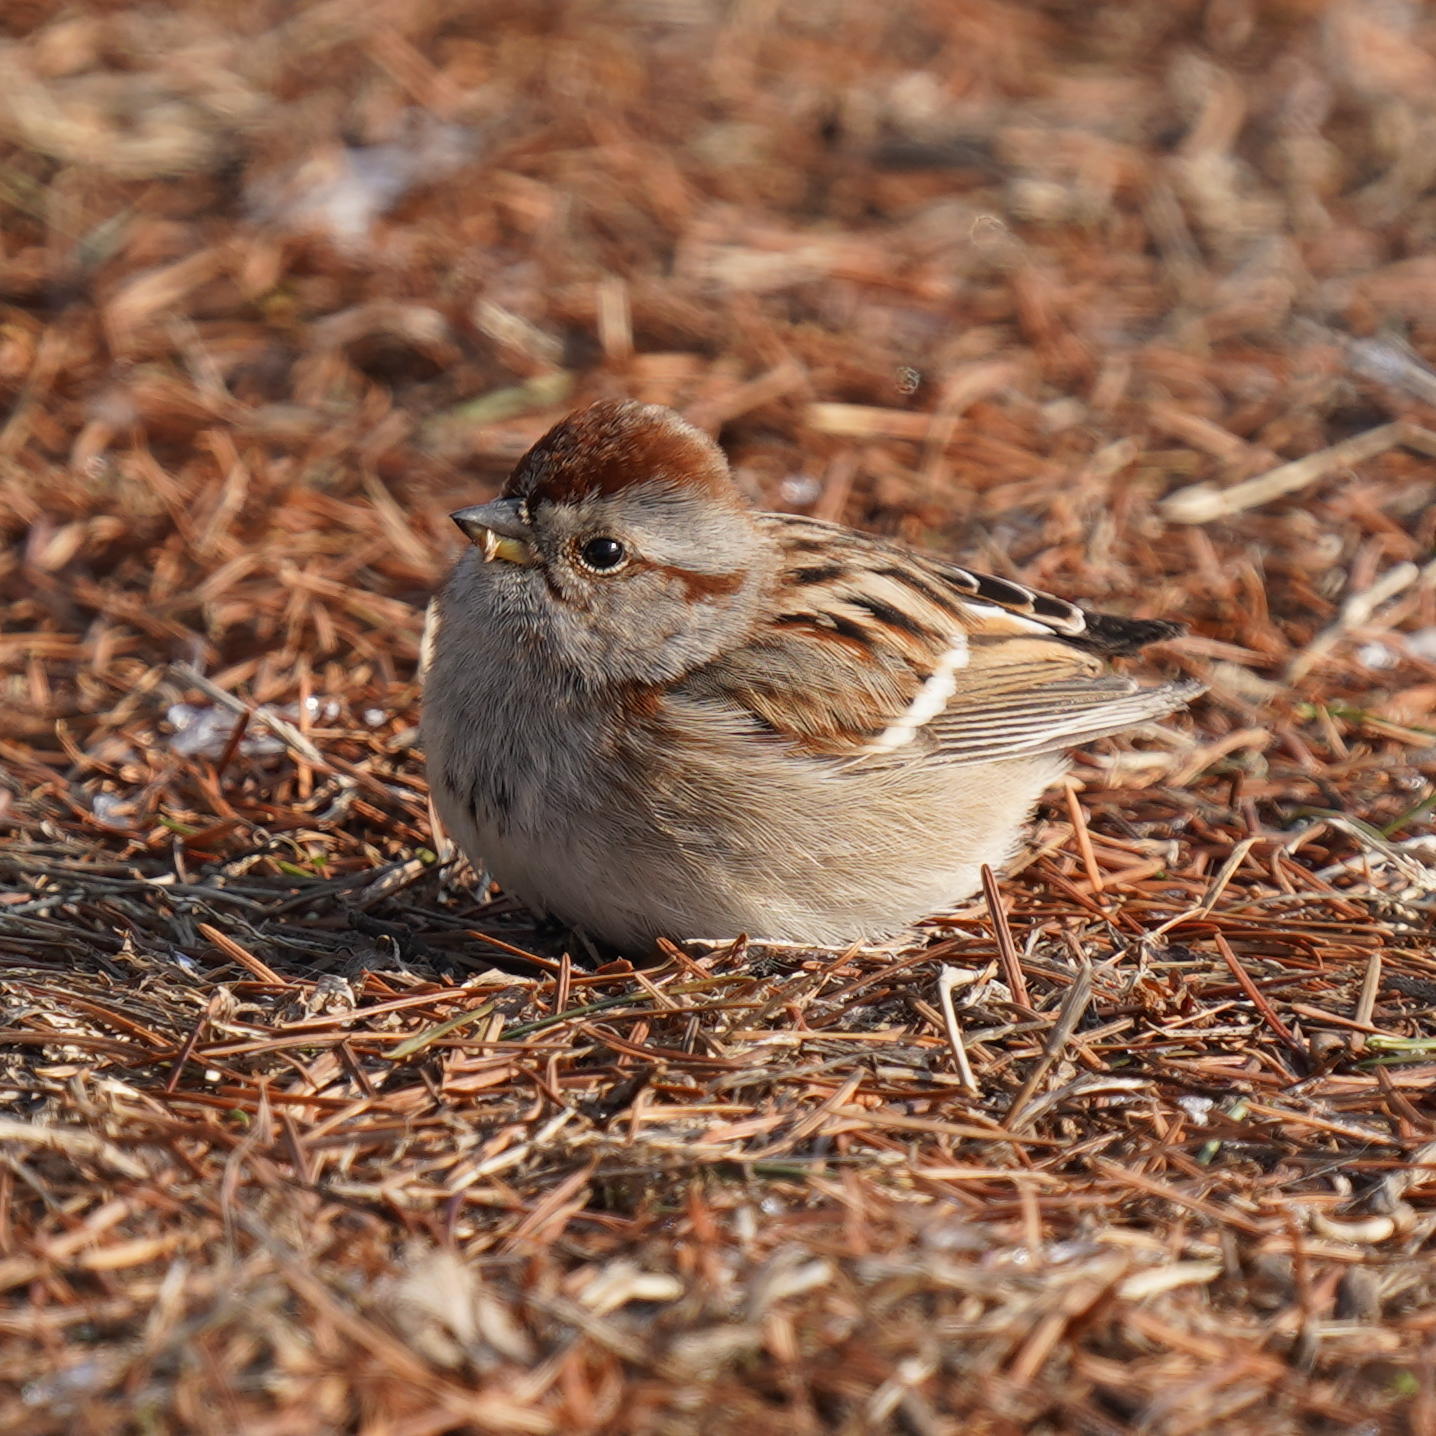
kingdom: Animalia
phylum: Chordata
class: Aves
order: Passeriformes
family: Passerellidae
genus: Spizelloides
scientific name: Spizelloides arborea
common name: American tree sparrow
